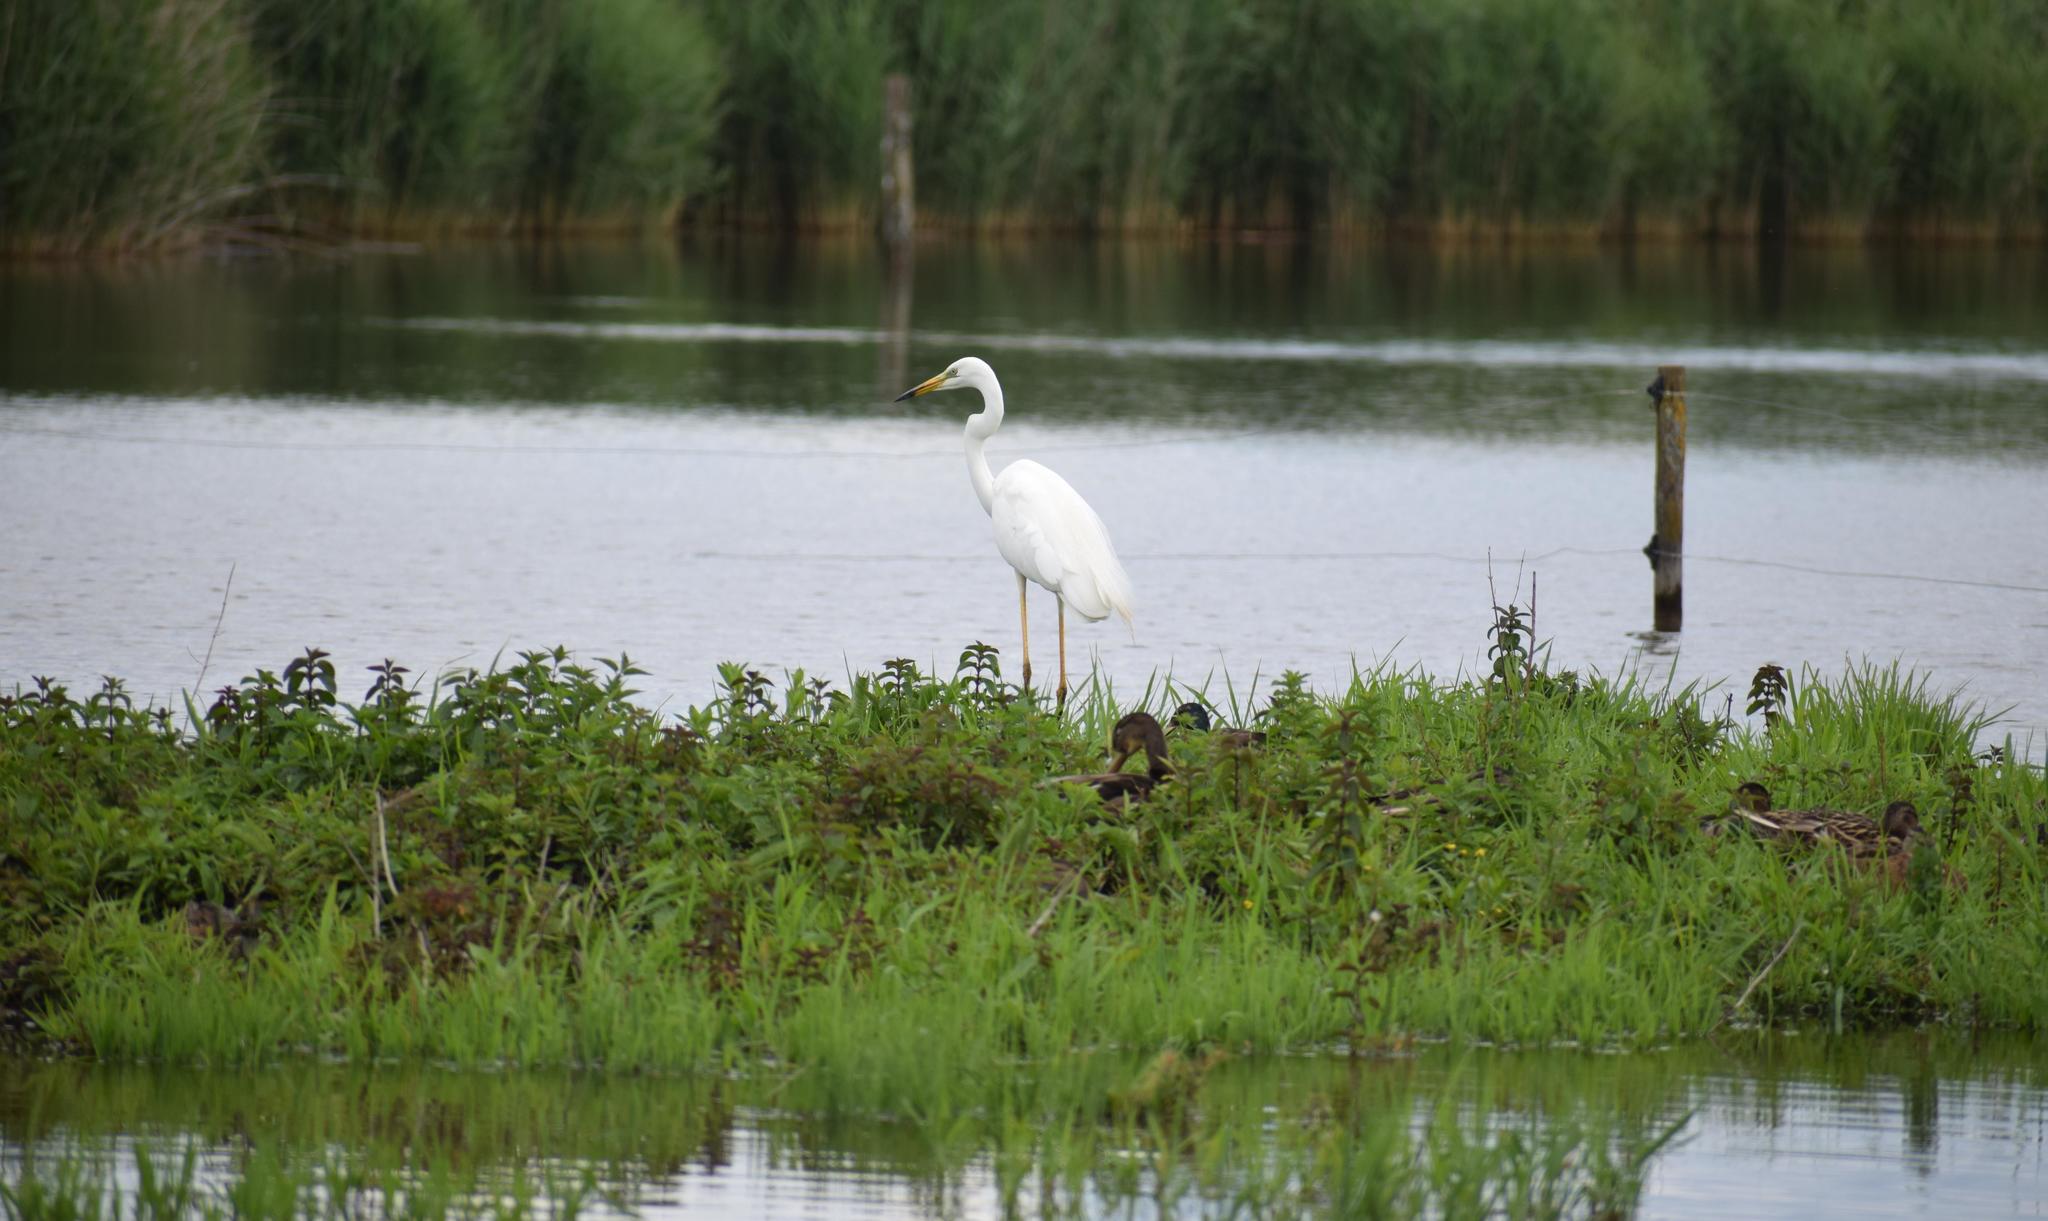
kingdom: Animalia
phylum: Chordata
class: Aves
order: Pelecaniformes
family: Ardeidae
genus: Ardea
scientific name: Ardea alba
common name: Great egret
